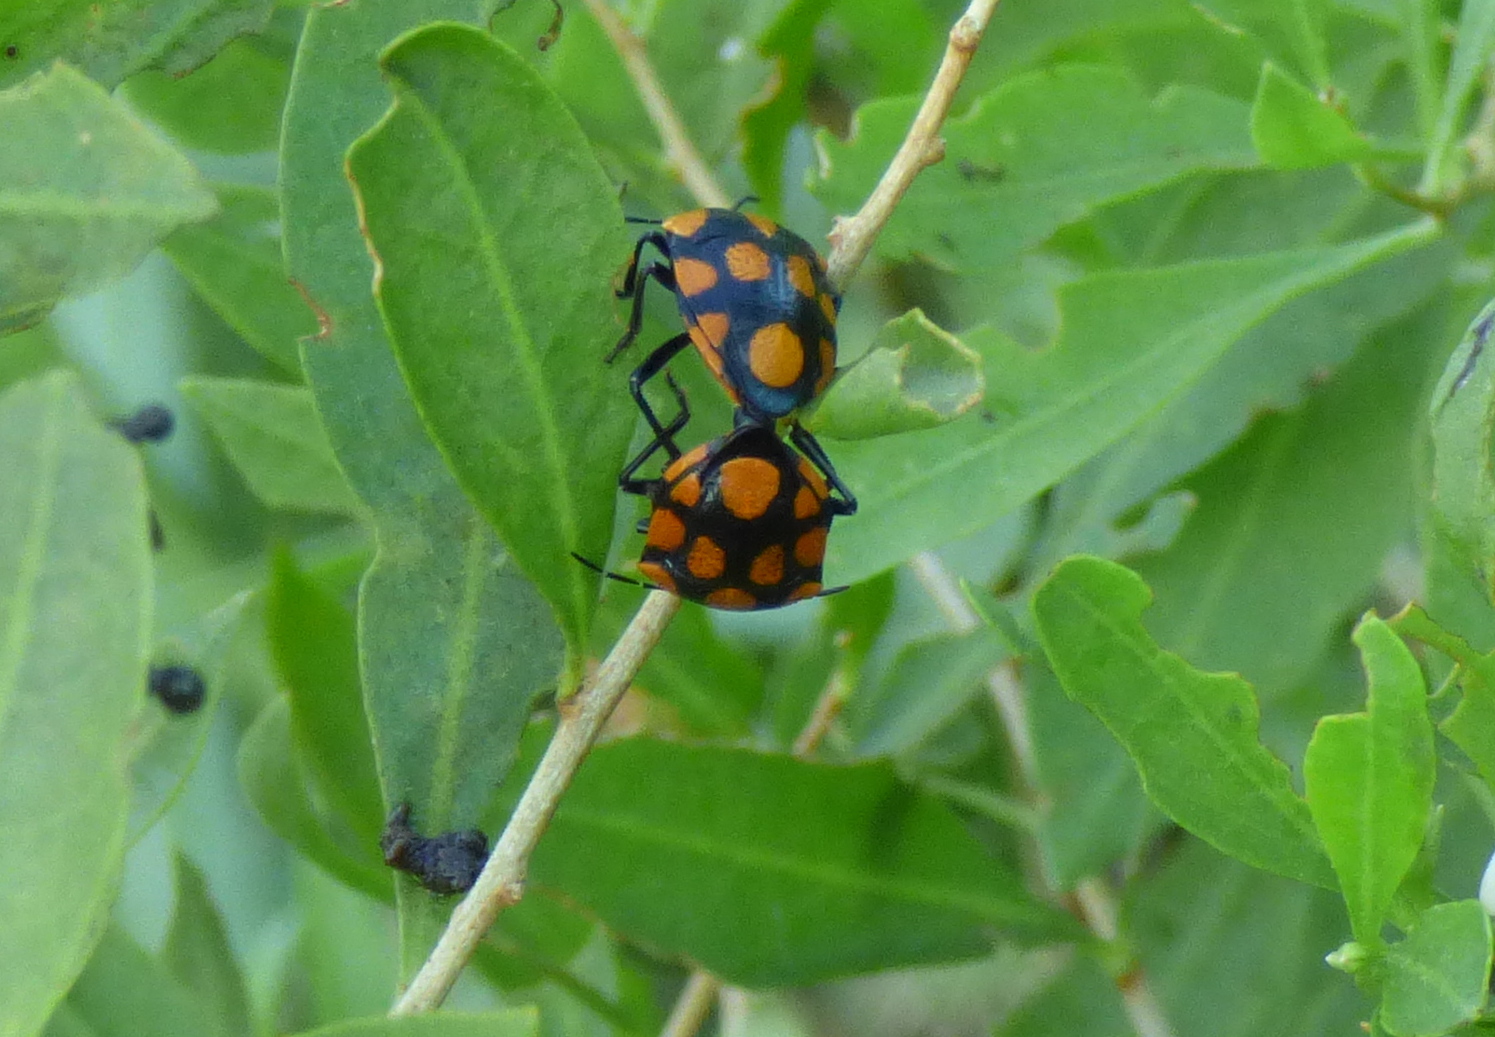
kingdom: Animalia
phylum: Arthropoda
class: Insecta
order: Hemiptera
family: Pentatomidae
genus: Stiretrus
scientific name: Stiretrus
